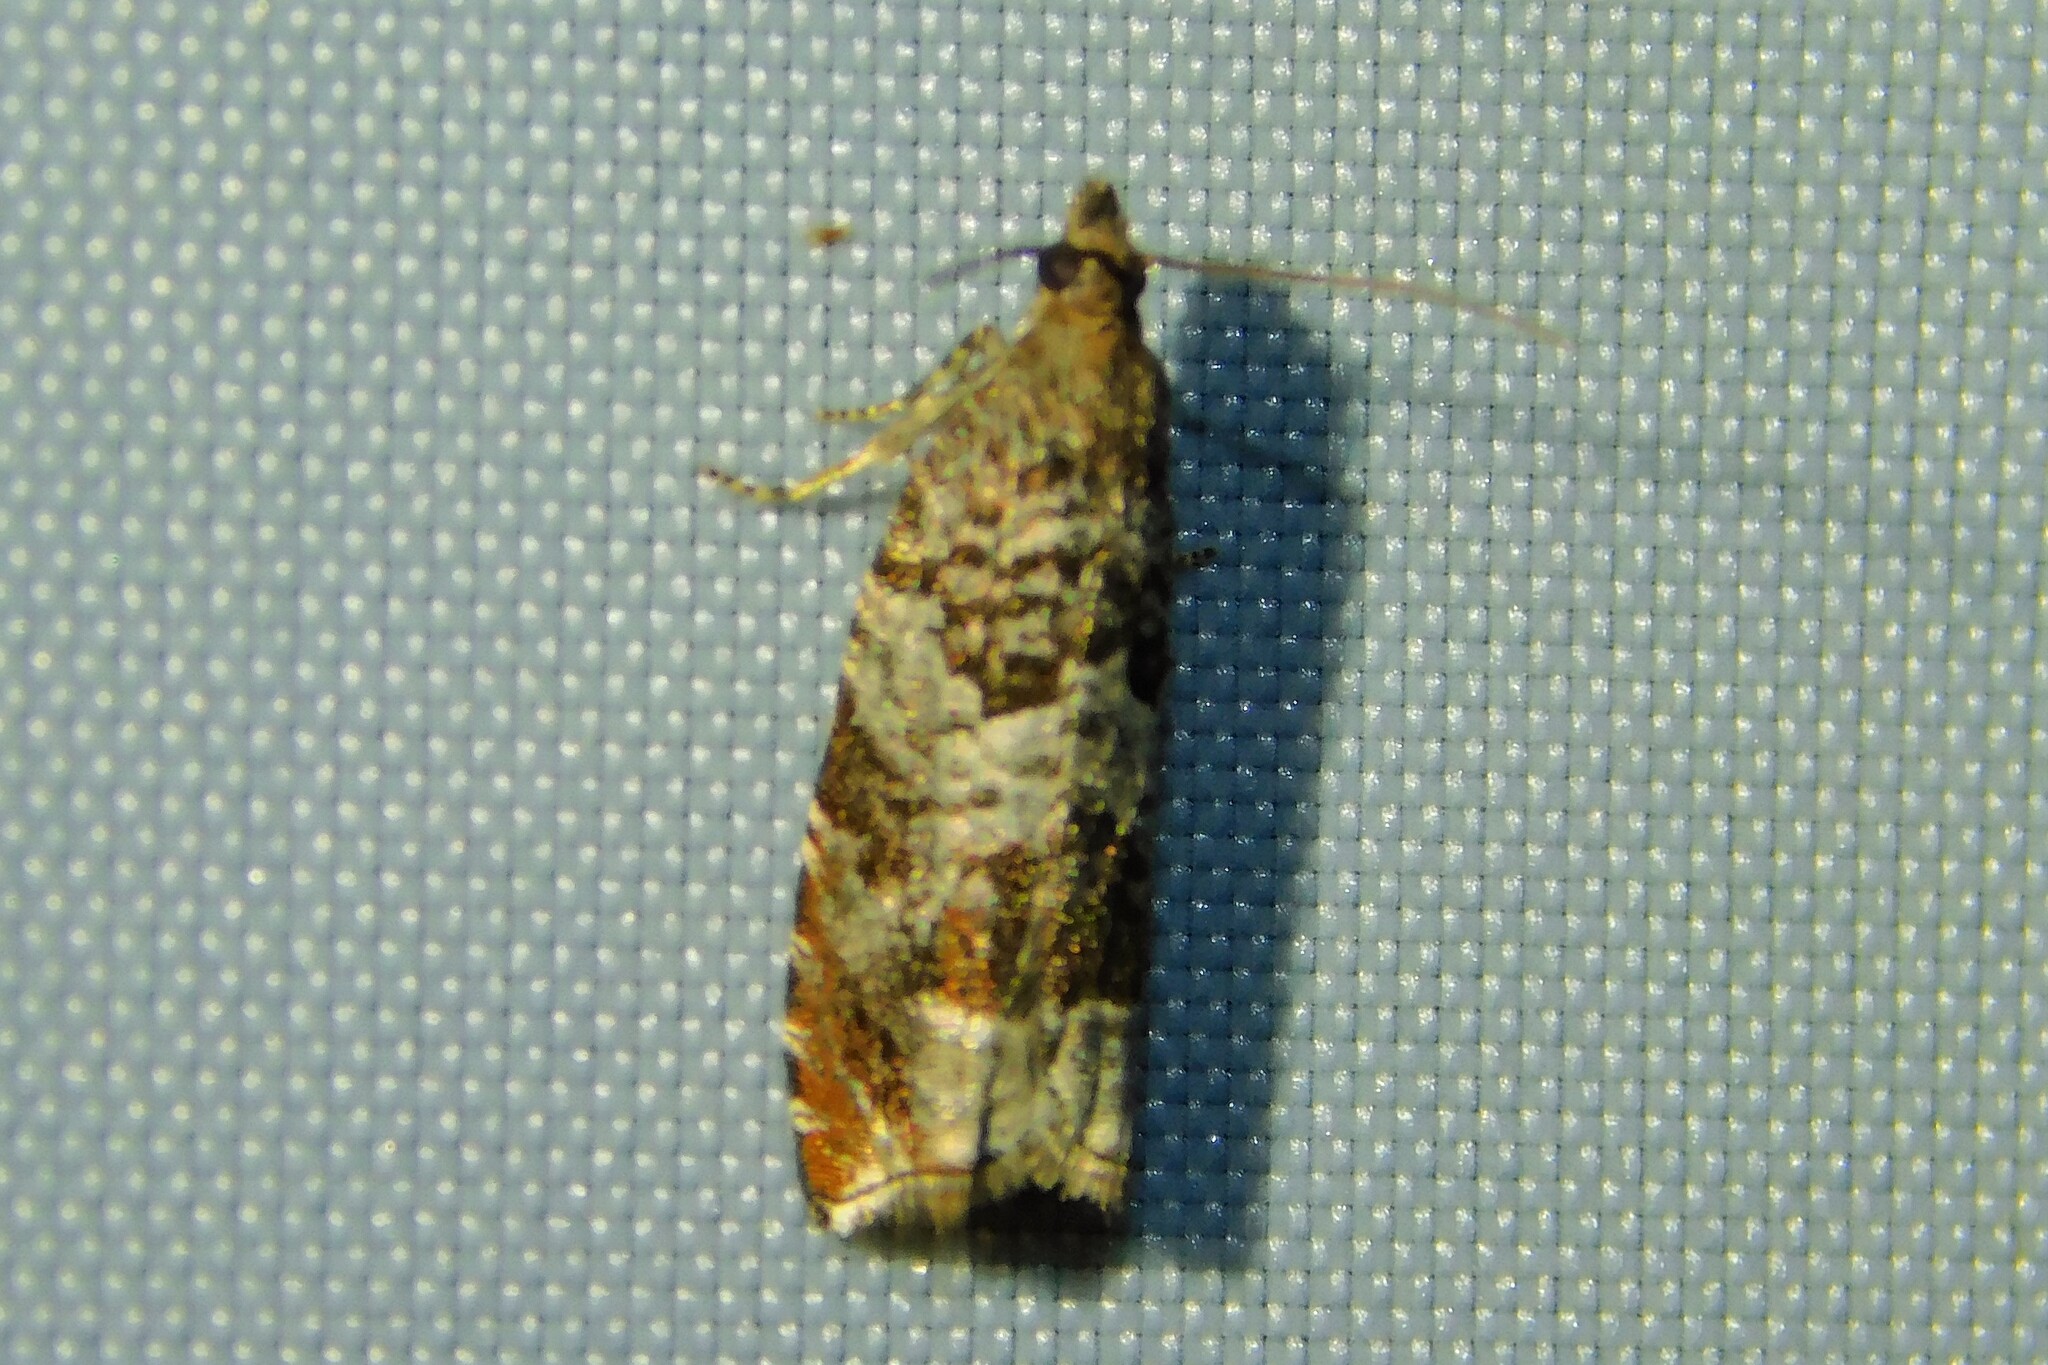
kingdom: Animalia
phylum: Arthropoda
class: Insecta
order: Lepidoptera
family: Tortricidae
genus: Ancylis
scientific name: Ancylis achatana
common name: Triangle-marked roller
